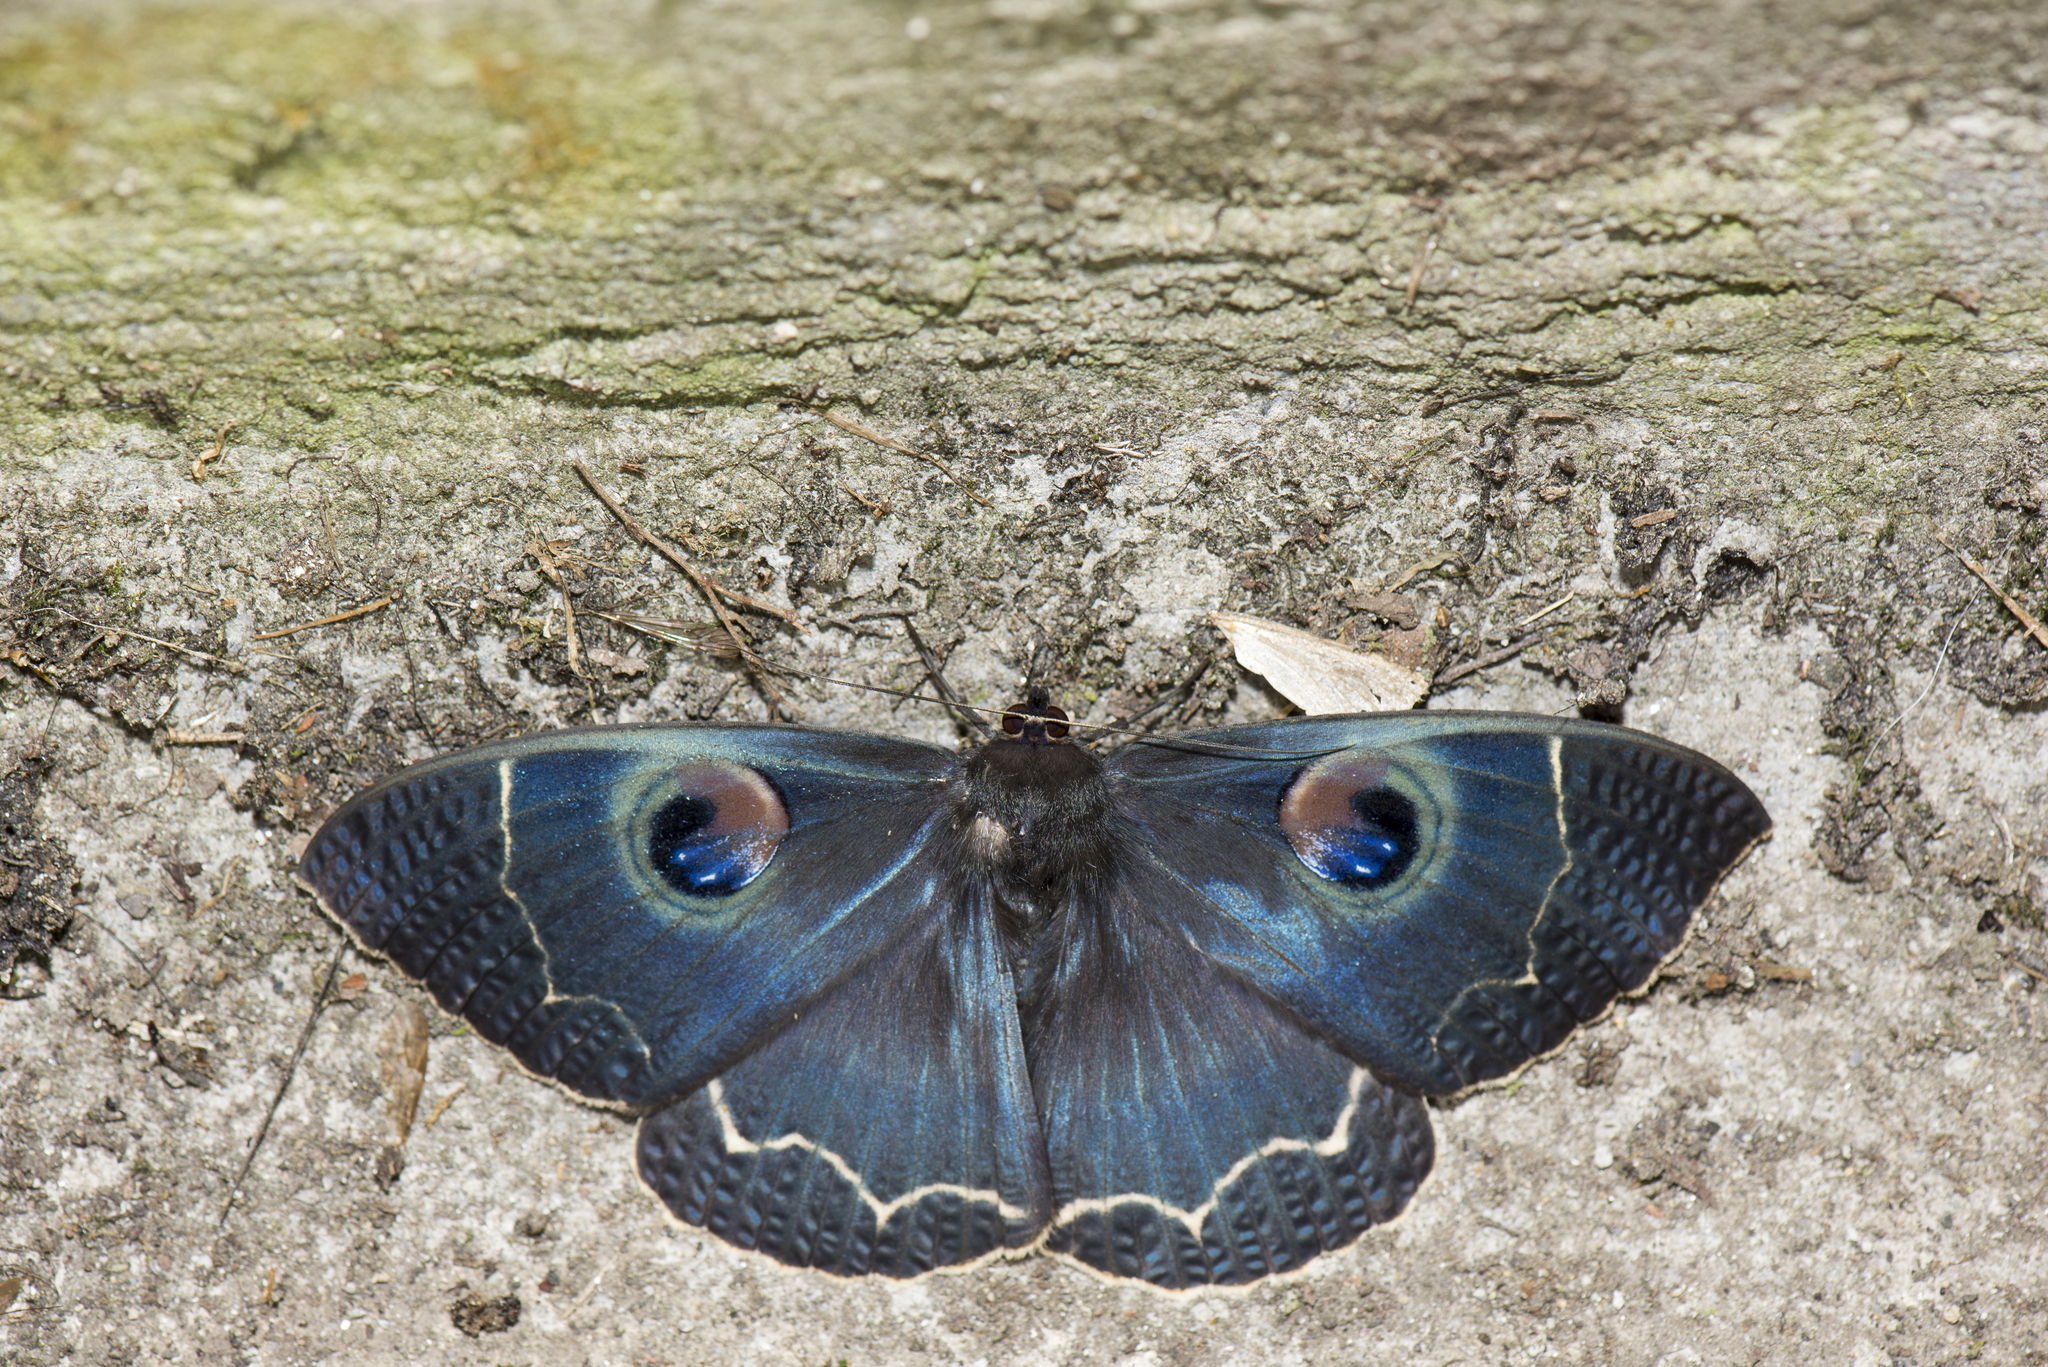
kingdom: Animalia
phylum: Arthropoda
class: Insecta
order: Lepidoptera
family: Erebidae
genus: Erebus
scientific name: Erebus albicinctus
